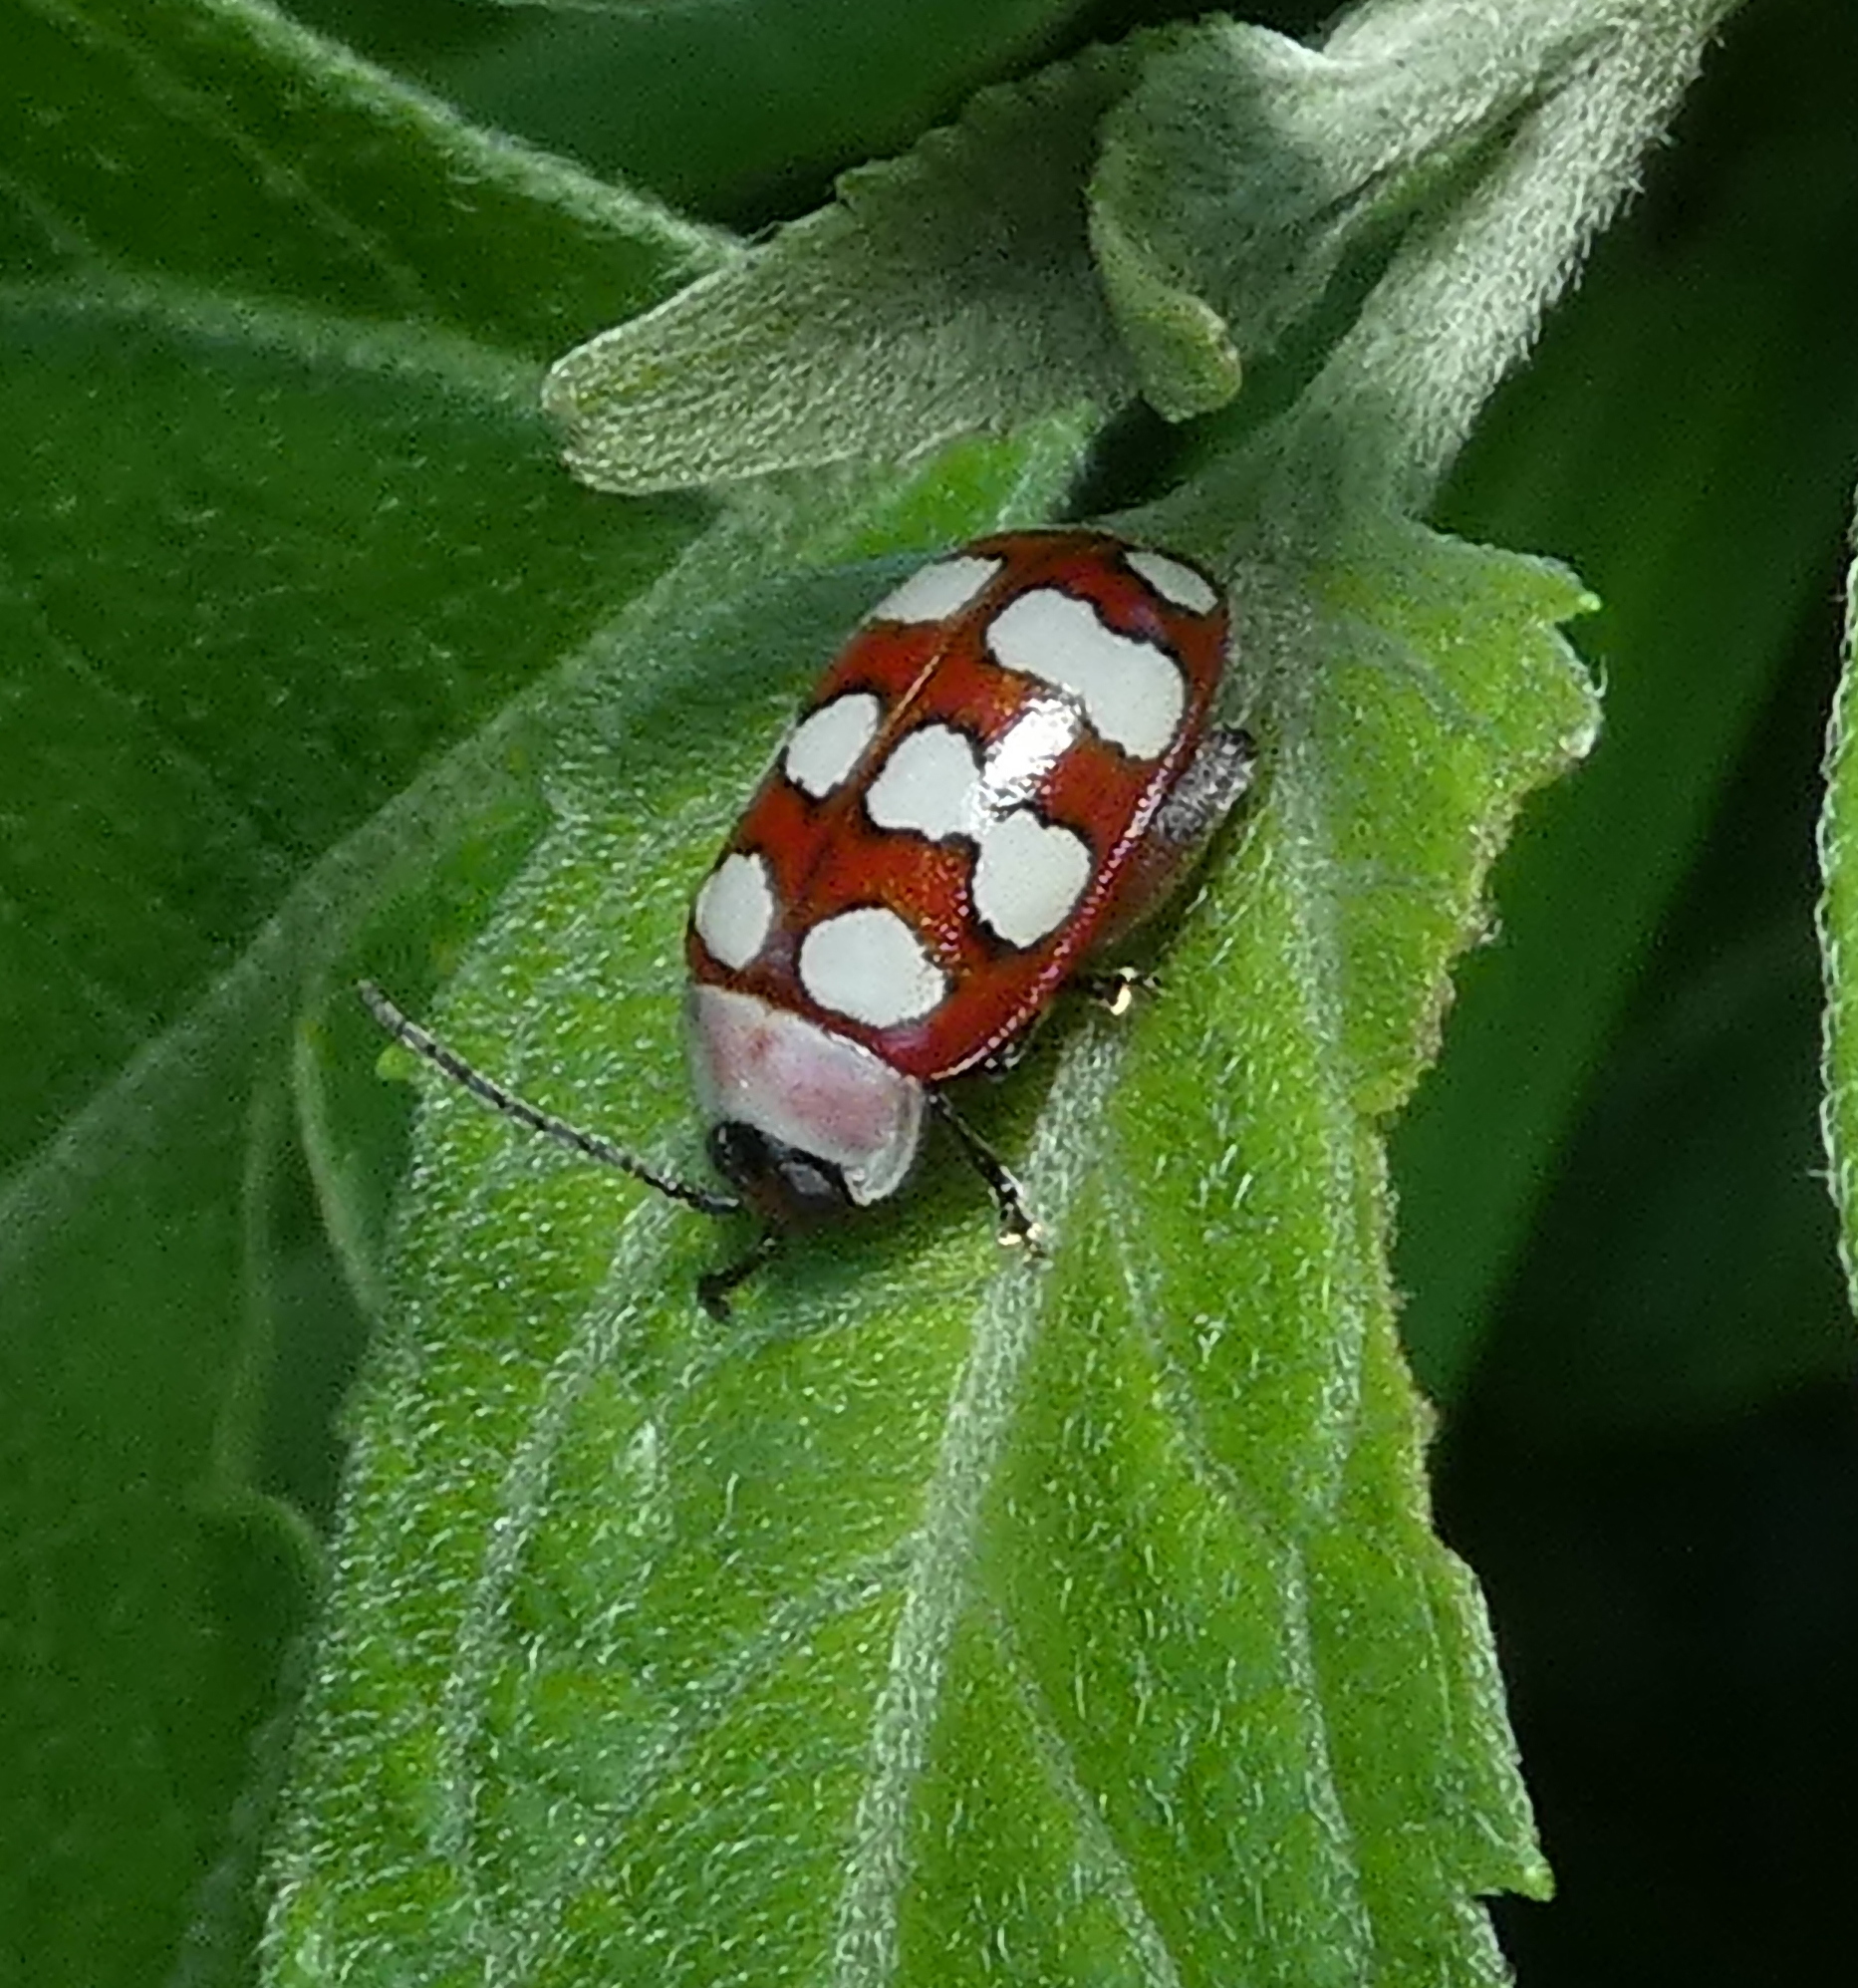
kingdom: Animalia
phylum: Arthropoda
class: Insecta
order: Coleoptera
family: Chrysomelidae
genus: Alagoasa
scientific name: Alagoasa decemguttata
